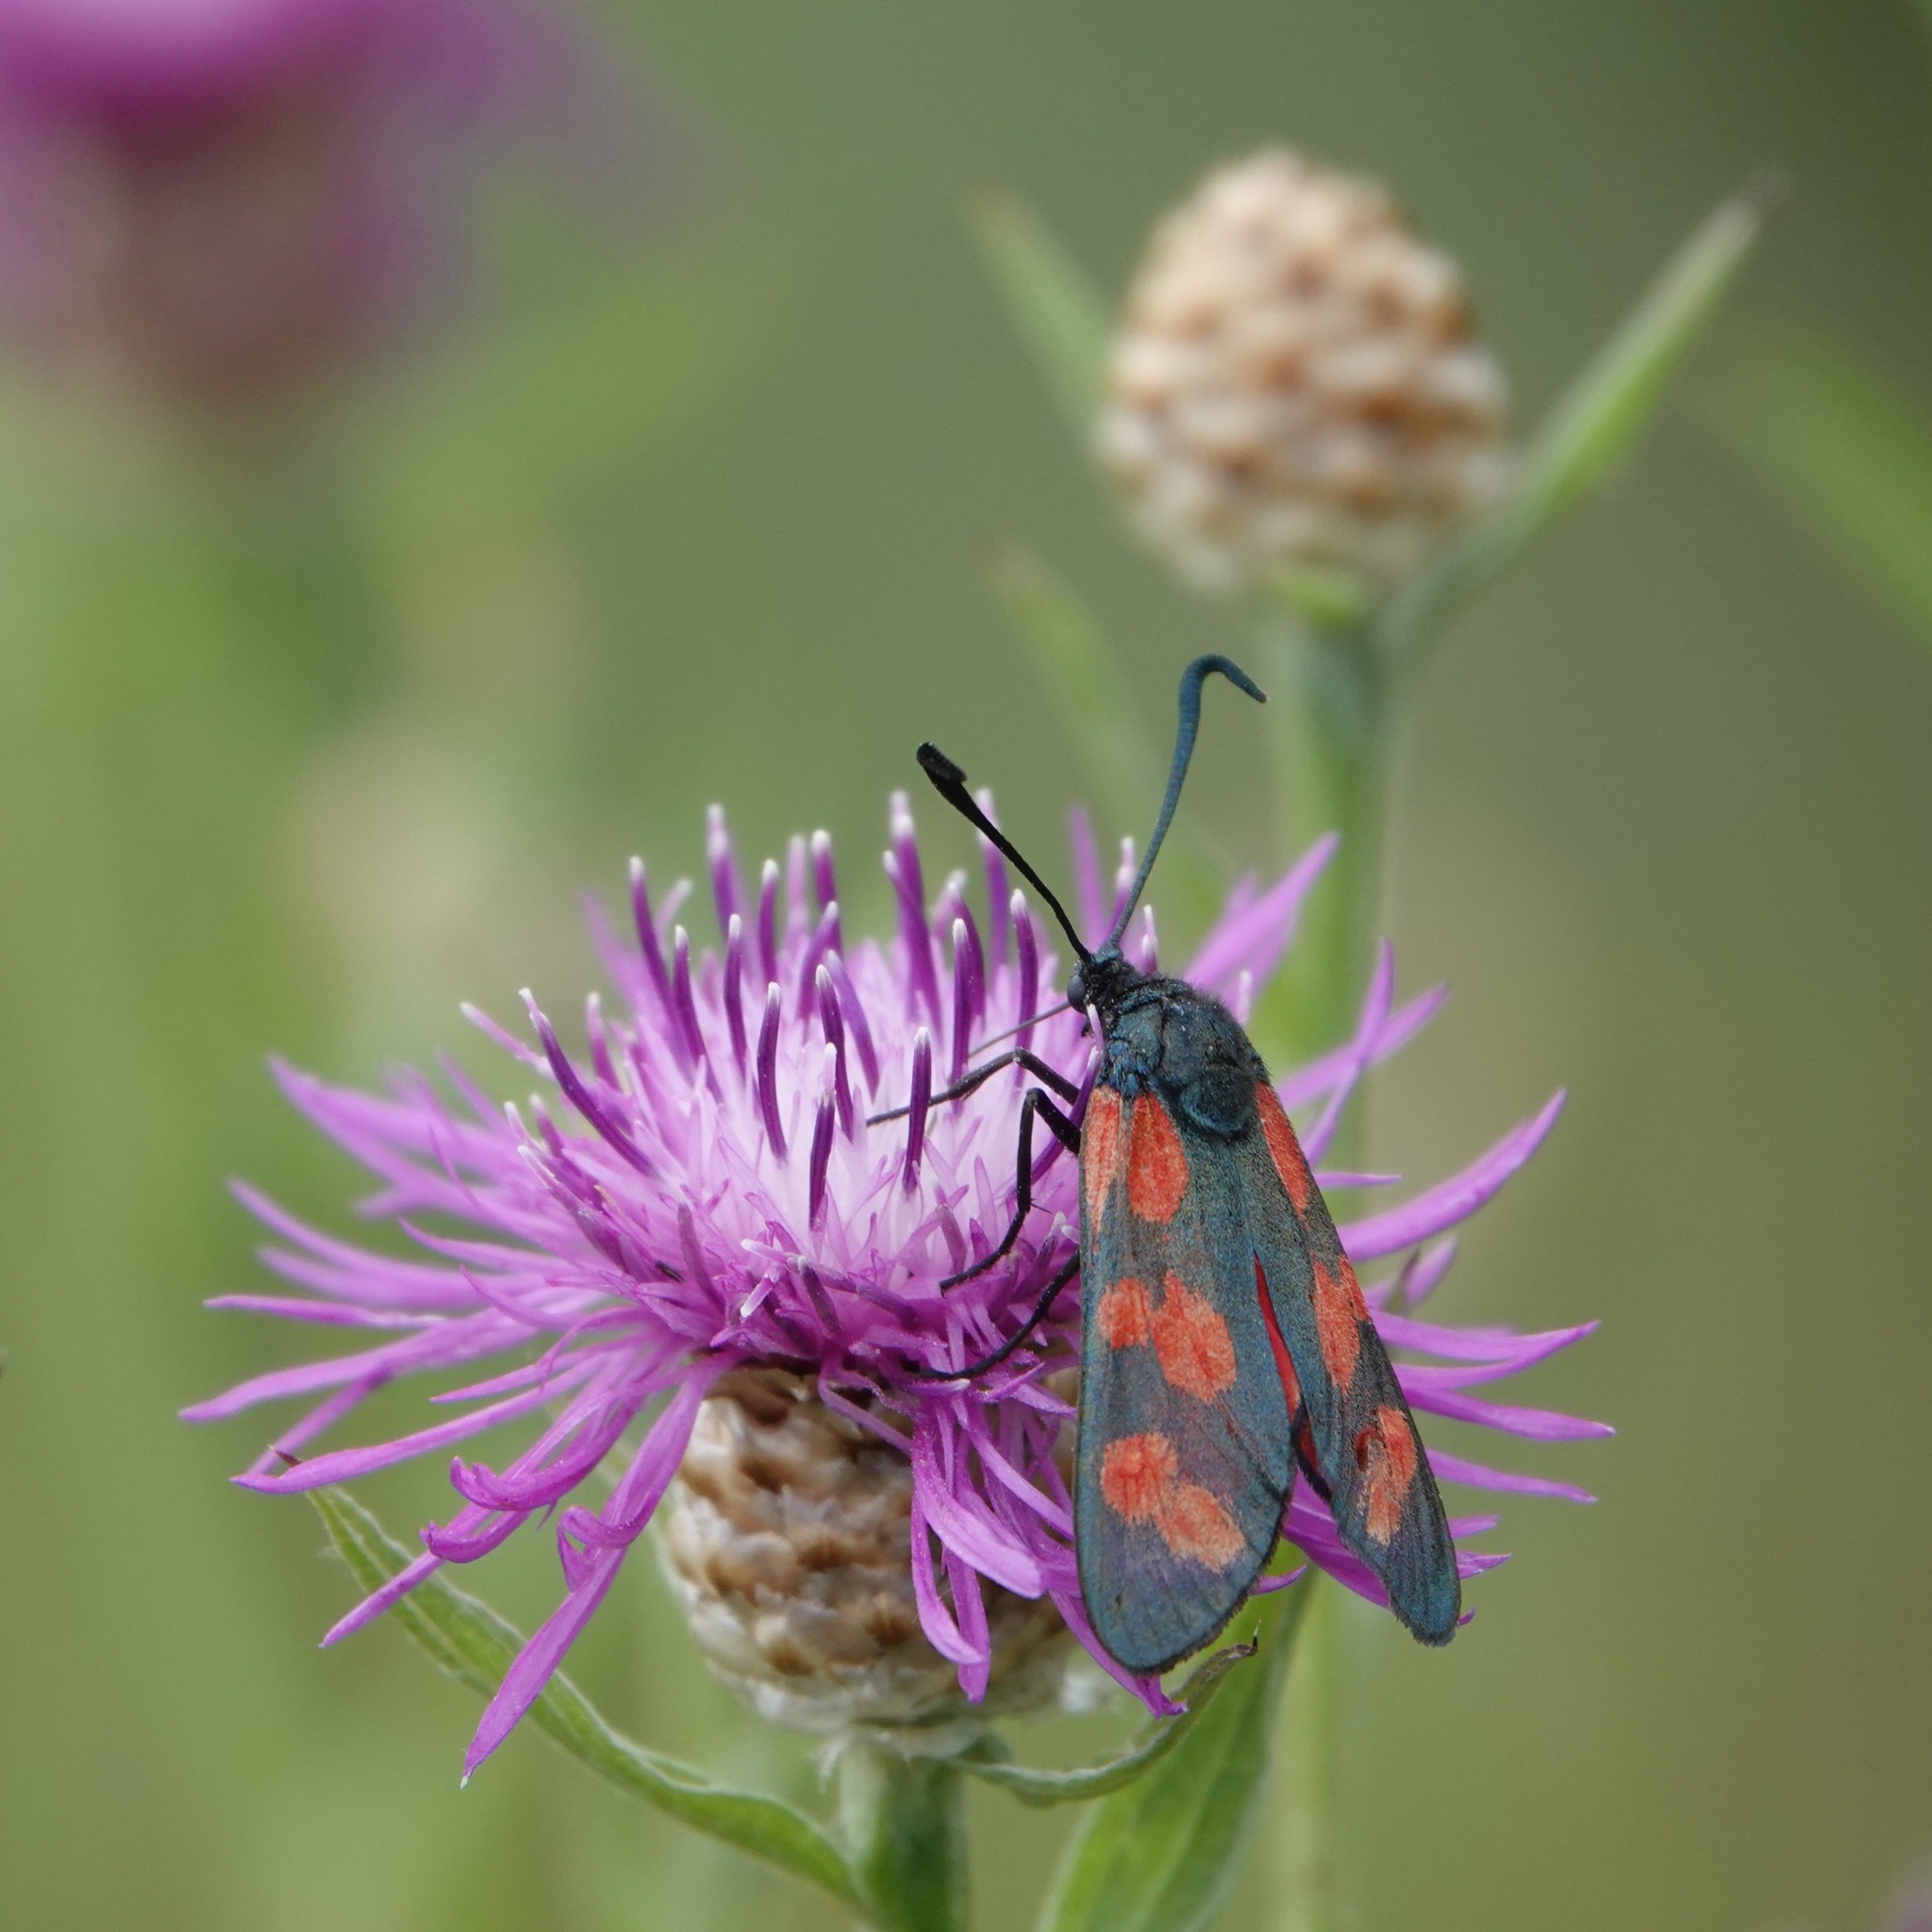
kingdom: Animalia
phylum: Arthropoda
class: Insecta
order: Lepidoptera
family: Zygaenidae
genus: Zygaena
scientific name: Zygaena filipendulae
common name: Six-spot burnet
